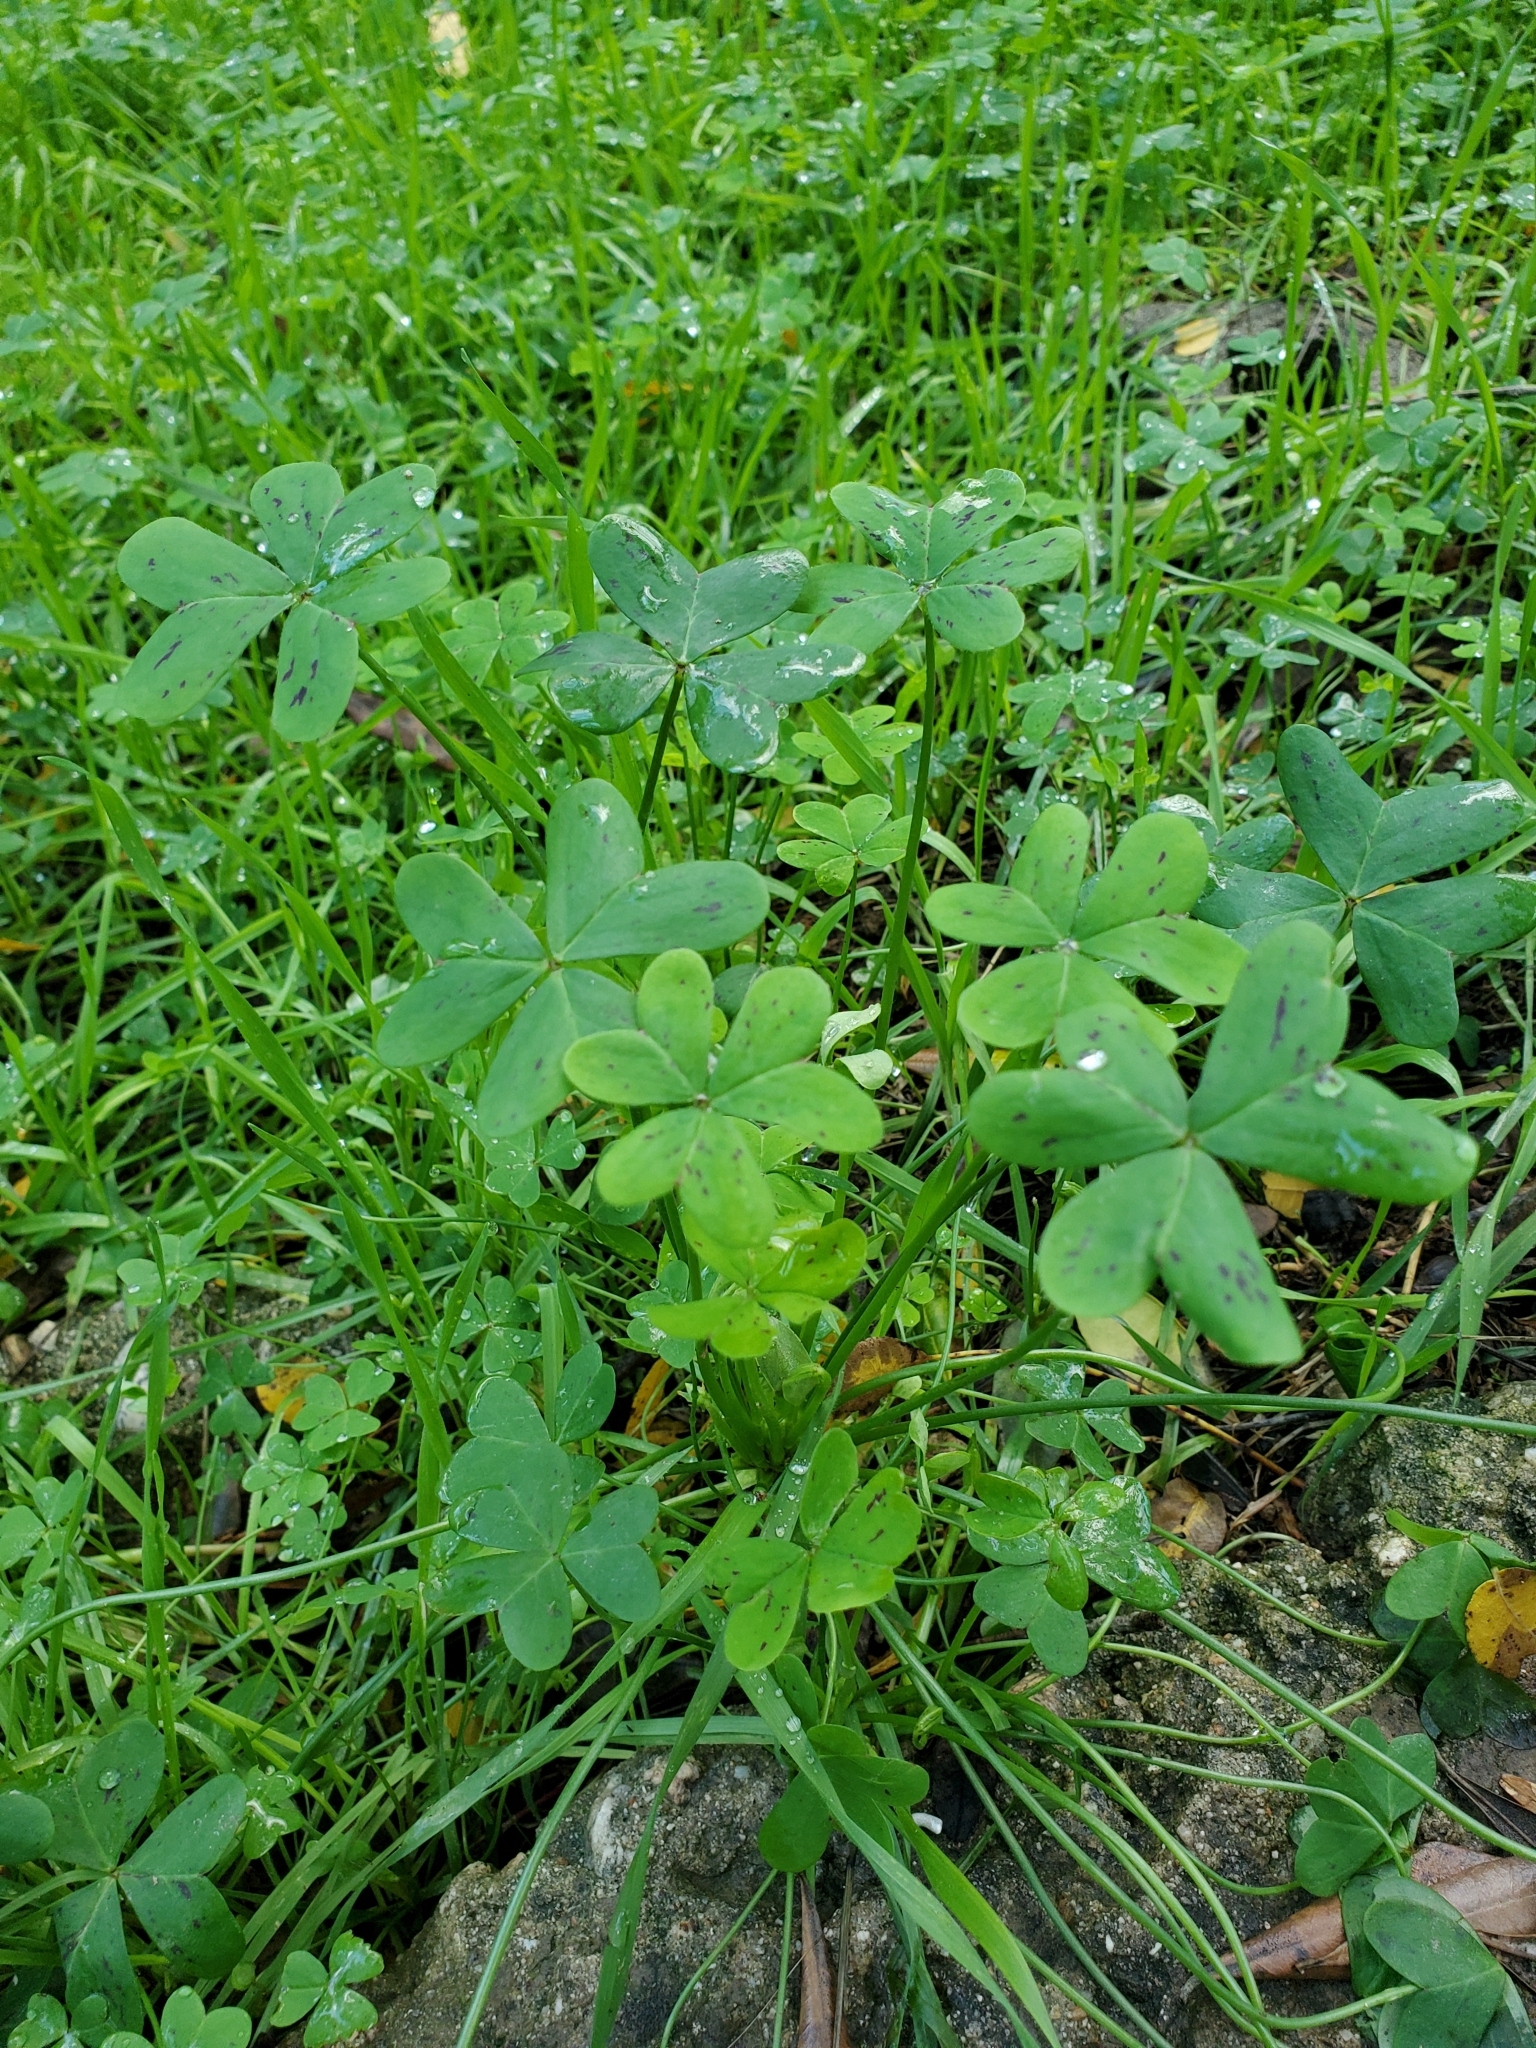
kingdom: Plantae
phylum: Tracheophyta
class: Magnoliopsida
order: Oxalidales
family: Oxalidaceae
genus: Oxalis
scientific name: Oxalis pes-caprae
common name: Bermuda-buttercup
